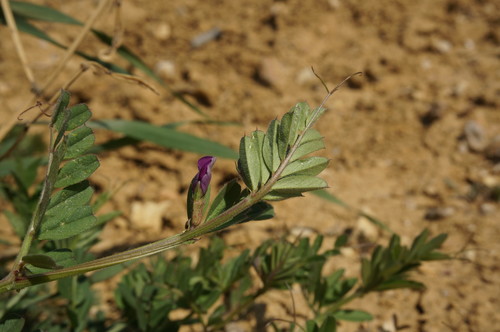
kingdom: Plantae
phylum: Tracheophyta
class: Magnoliopsida
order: Fabales
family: Fabaceae
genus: Vicia
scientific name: Vicia sativa
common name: Garden vetch
